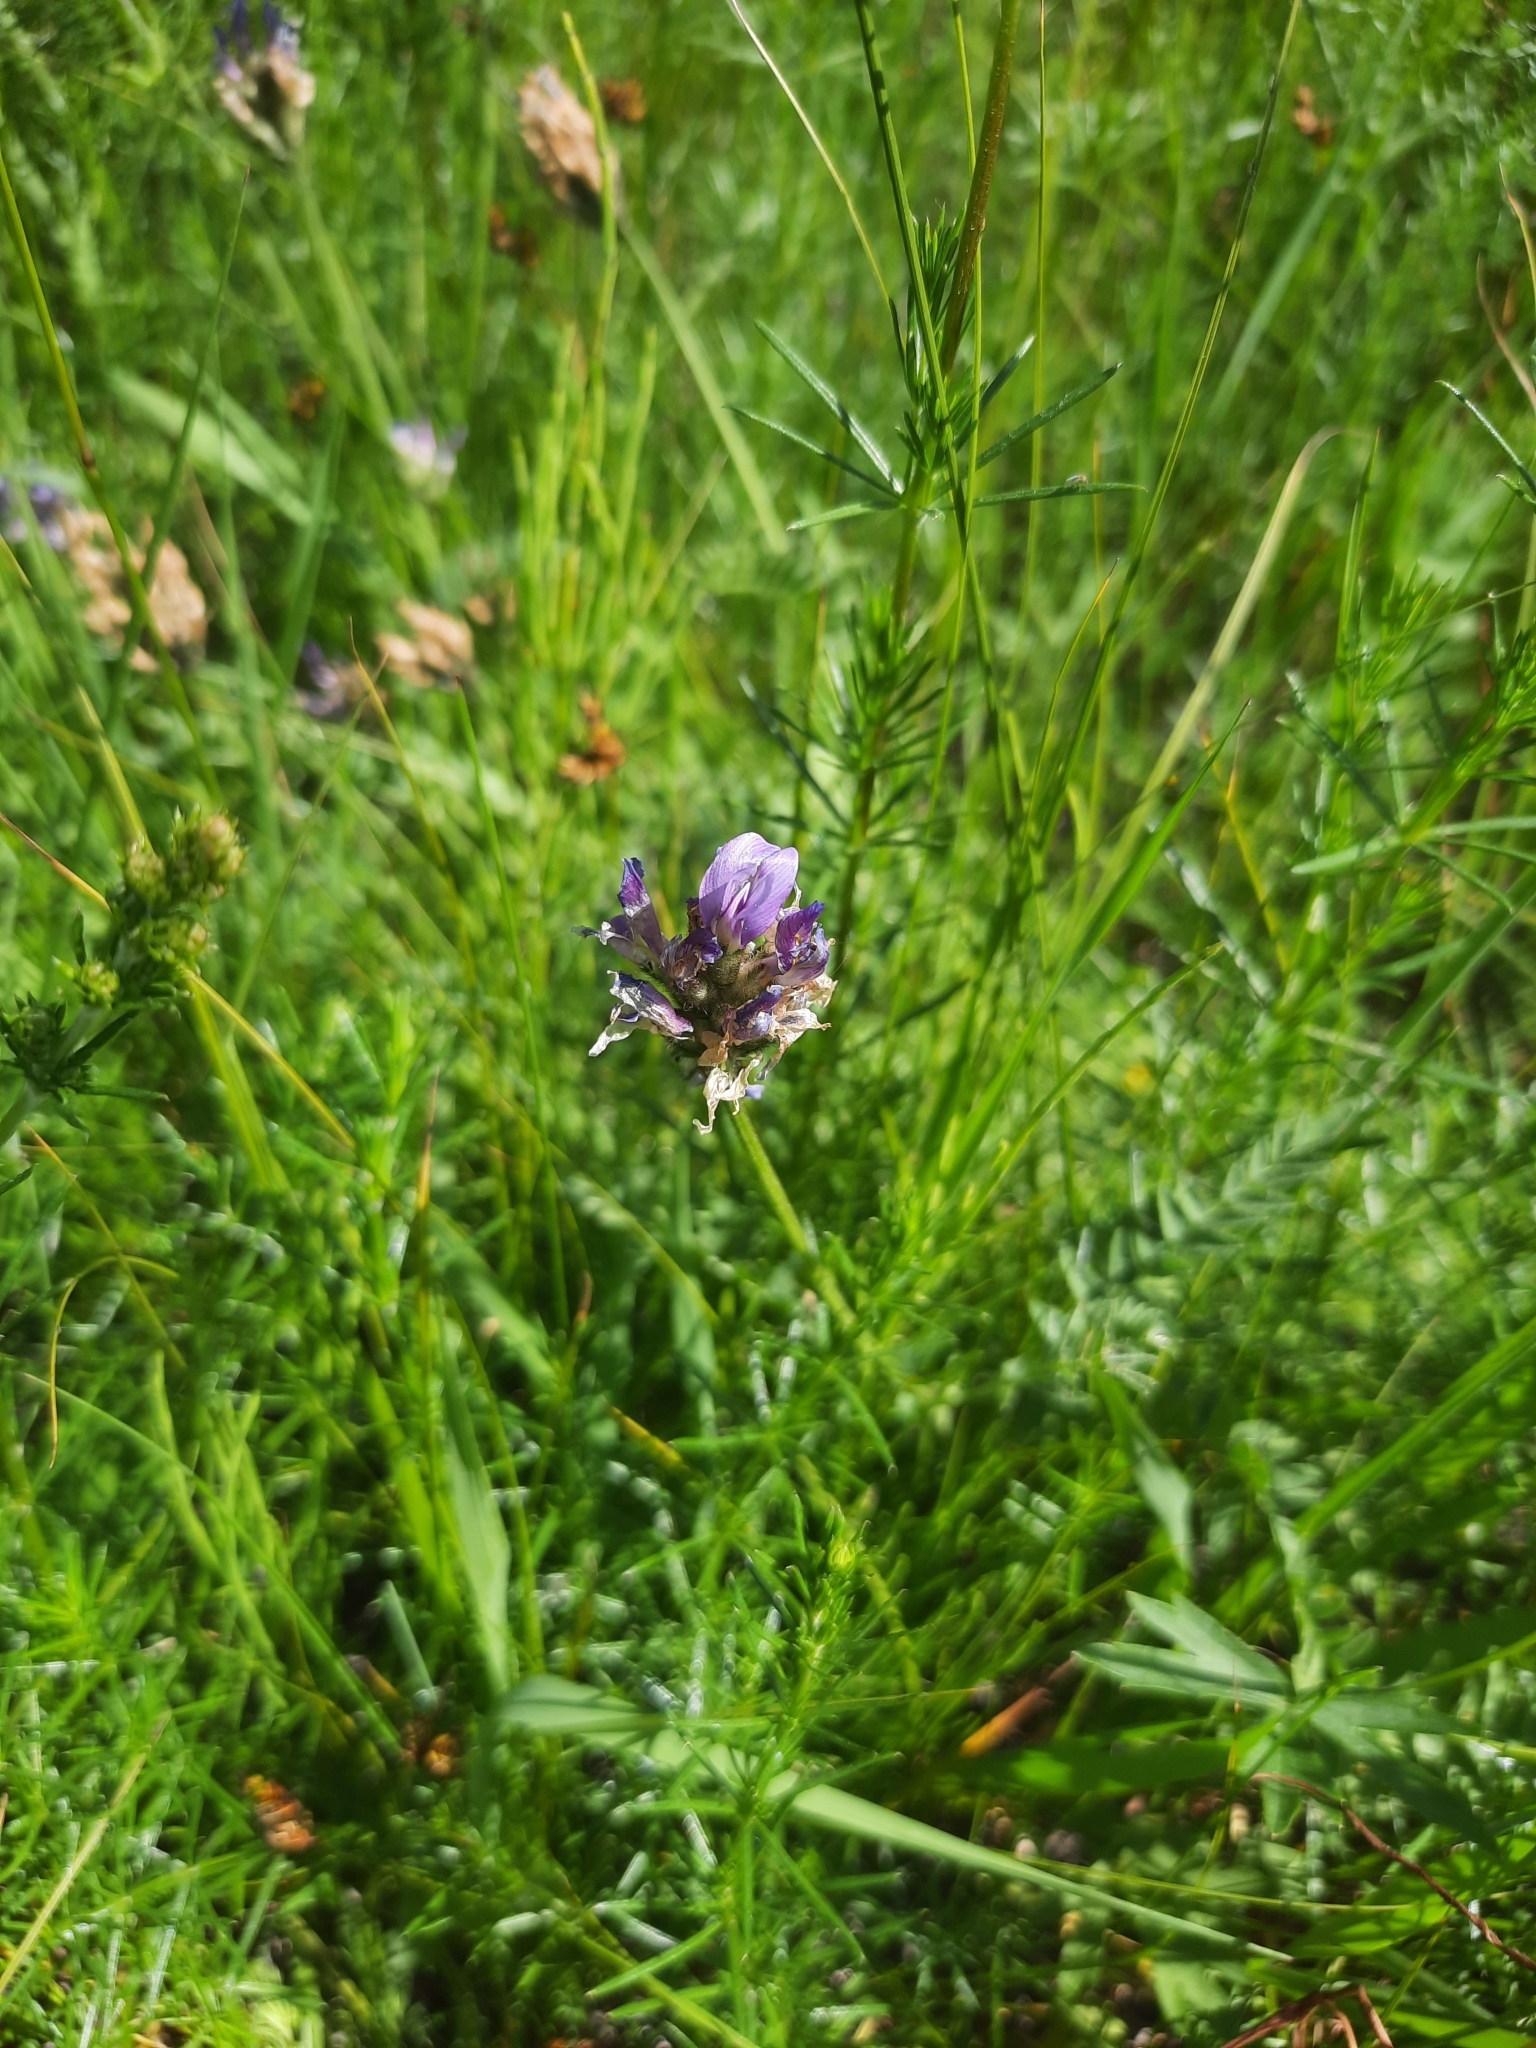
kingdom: Plantae
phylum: Tracheophyta
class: Magnoliopsida
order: Fabales
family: Fabaceae
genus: Astragalus
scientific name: Astragalus danicus
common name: Purple milk-vetch
